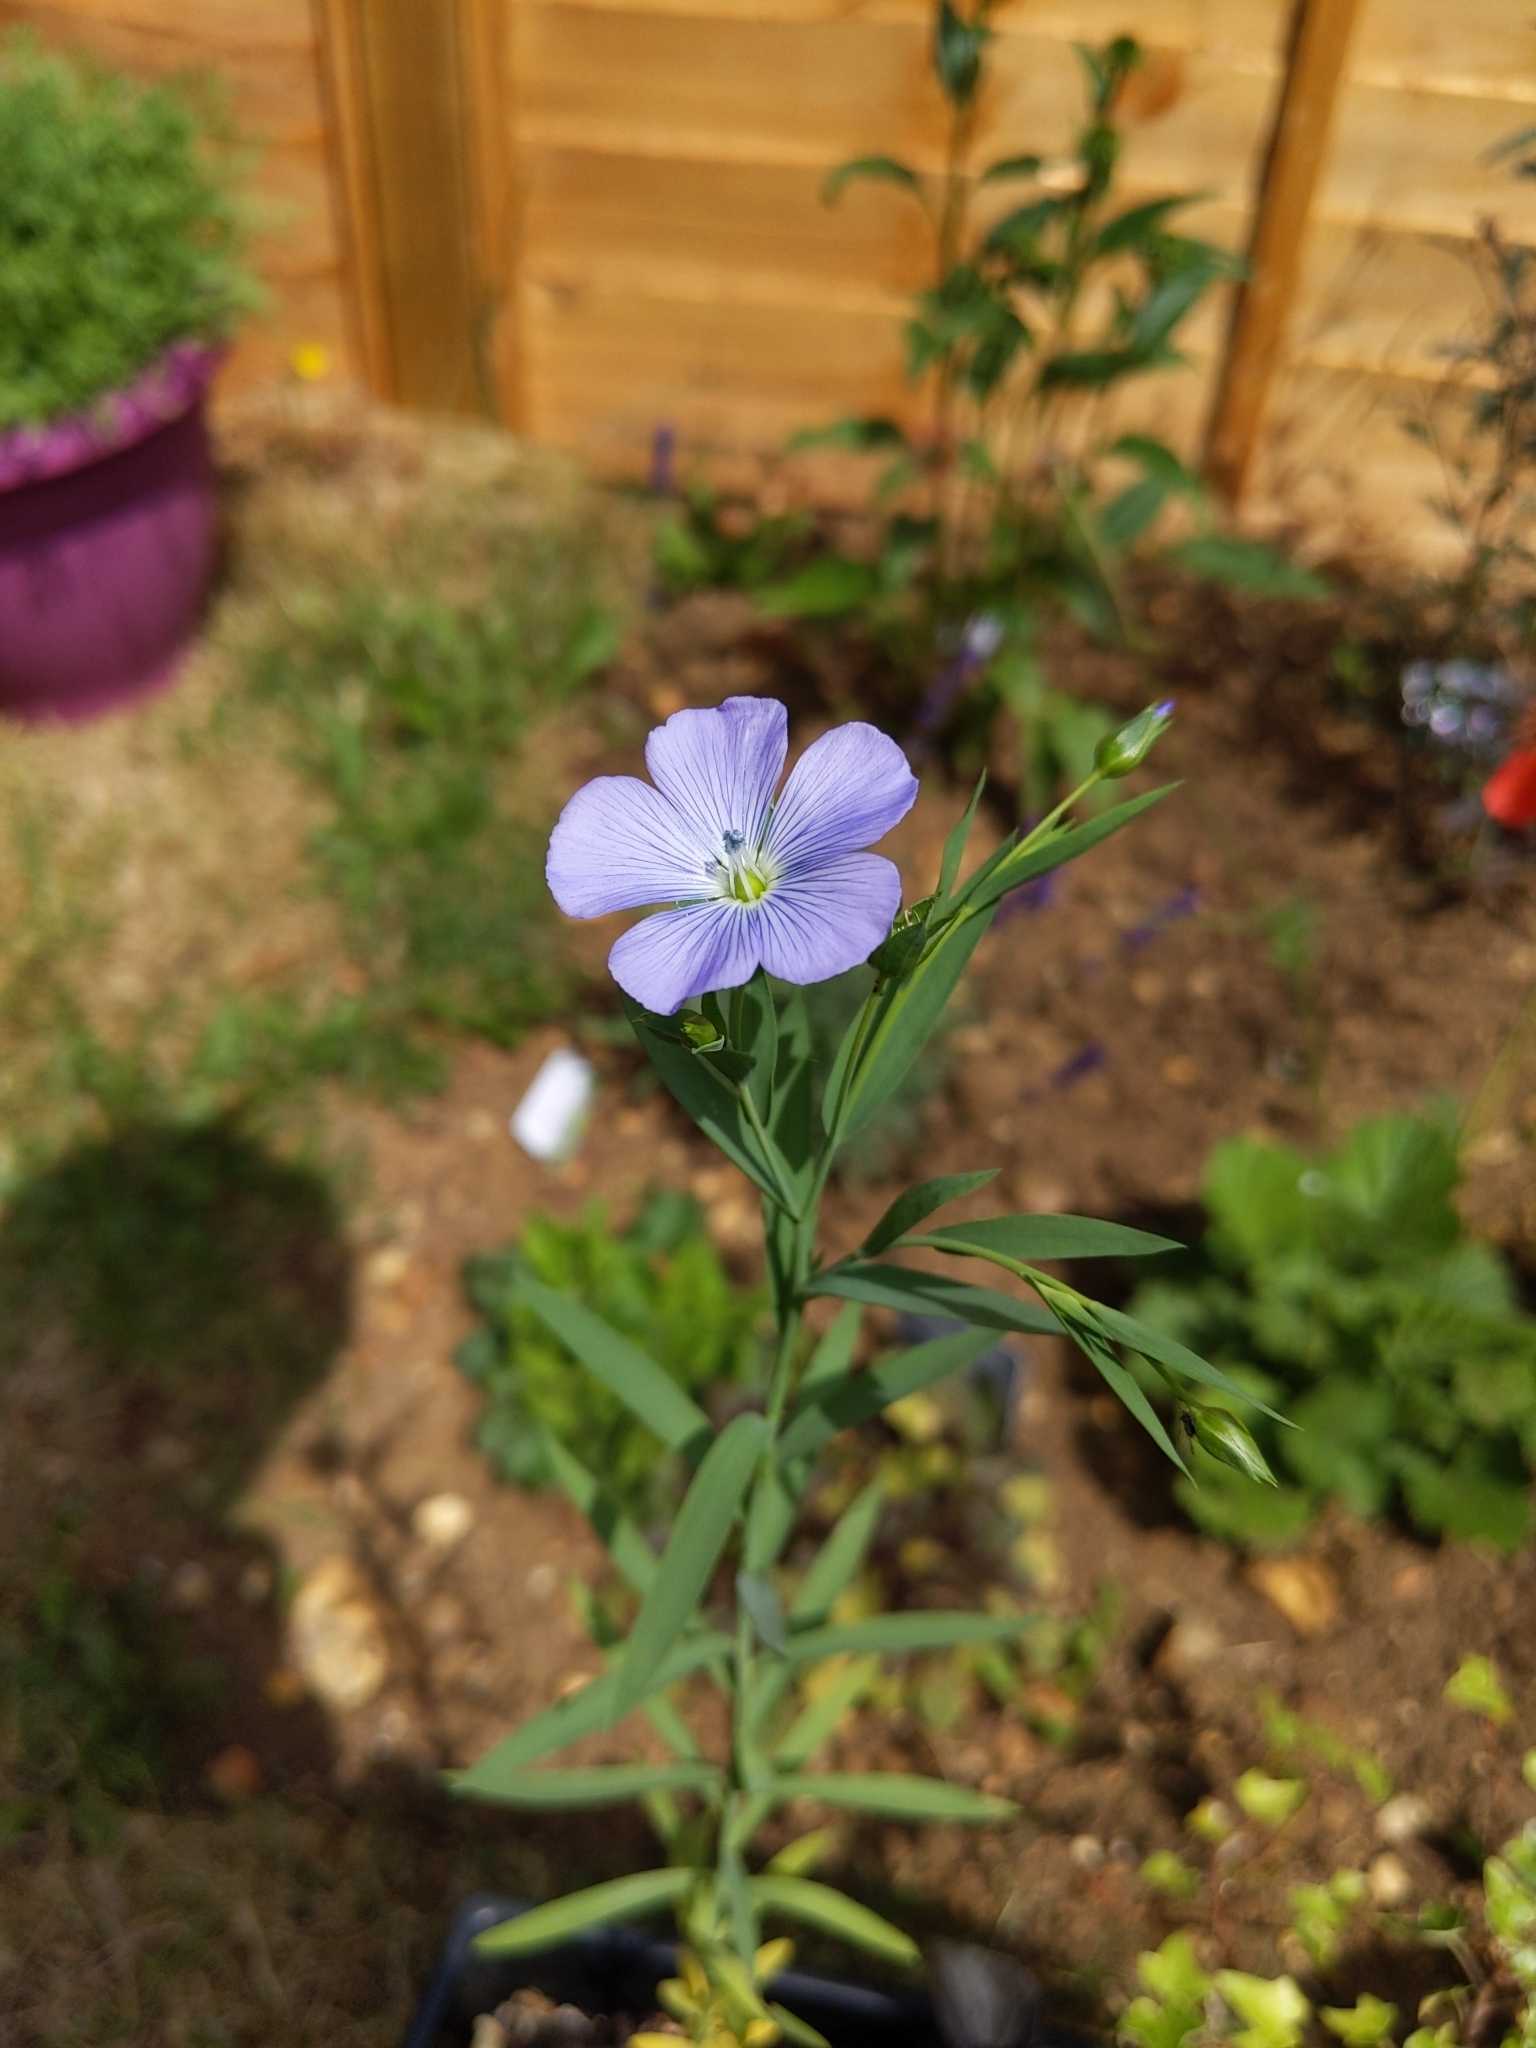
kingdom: Plantae
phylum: Tracheophyta
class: Magnoliopsida
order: Malpighiales
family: Linaceae
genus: Linum
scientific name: Linum usitatissimum
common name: Flax
